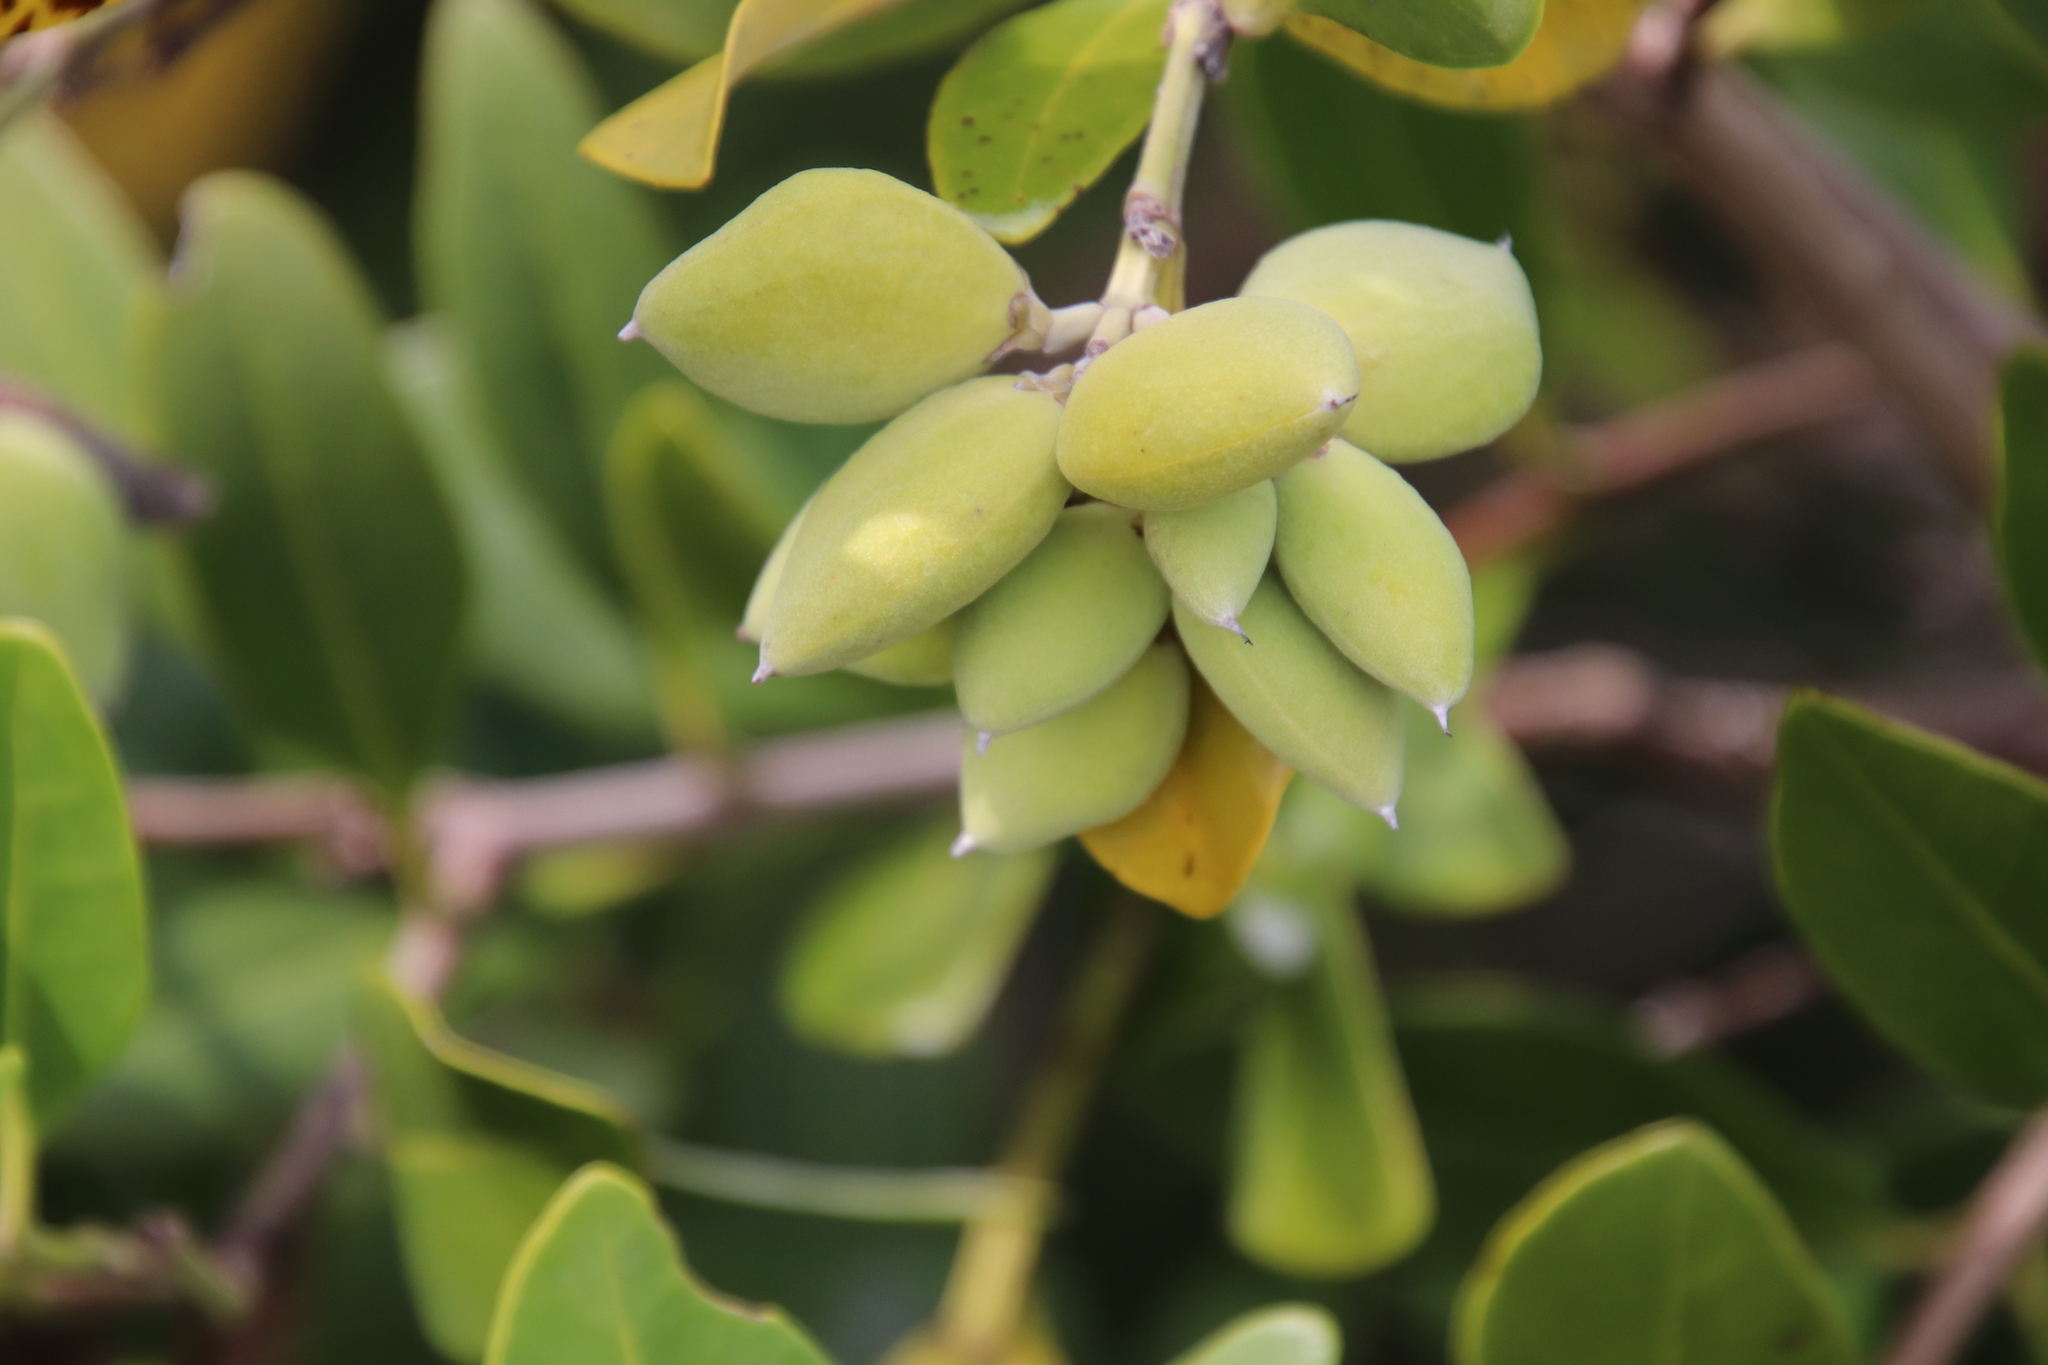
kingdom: Plantae
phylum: Tracheophyta
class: Magnoliopsida
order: Lamiales
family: Acanthaceae
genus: Avicennia
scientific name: Avicennia germinans
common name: Black mangrove
